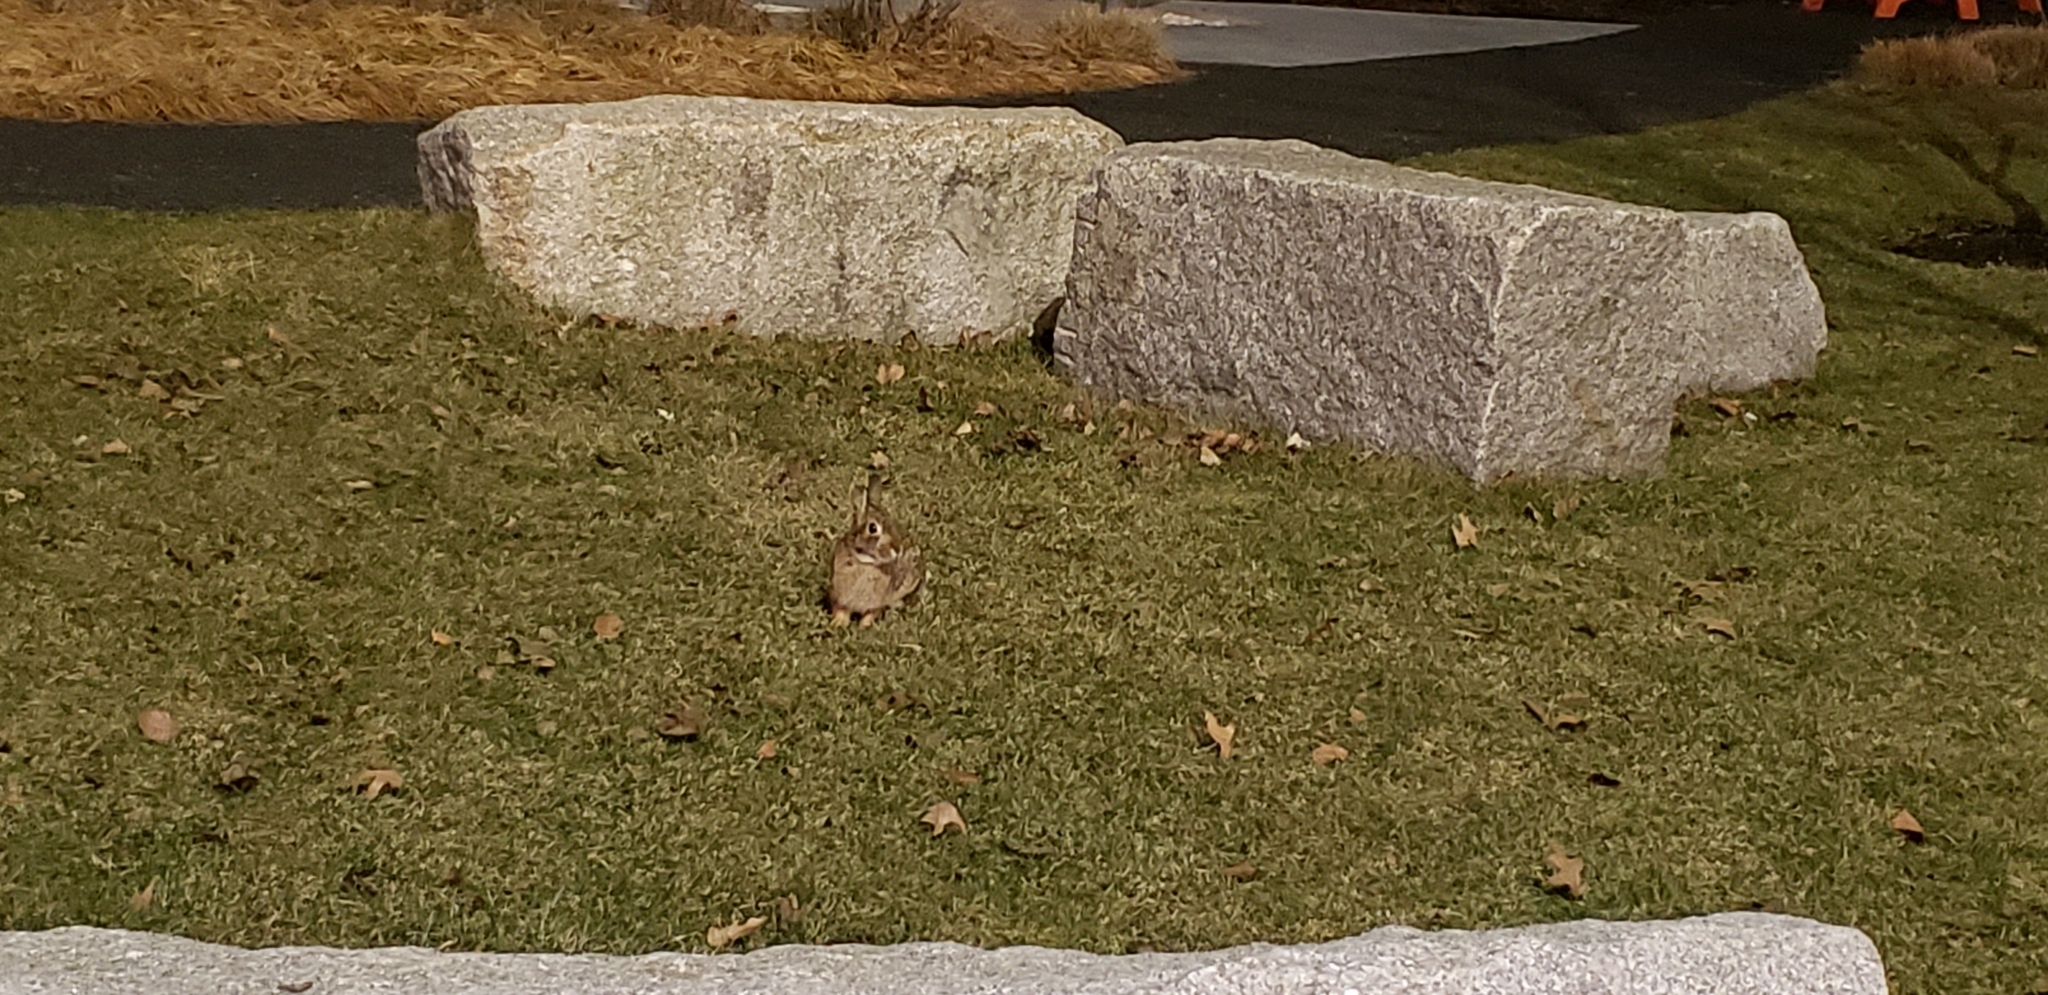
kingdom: Animalia
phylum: Chordata
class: Mammalia
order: Lagomorpha
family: Leporidae
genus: Sylvilagus
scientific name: Sylvilagus floridanus
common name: Eastern cottontail
